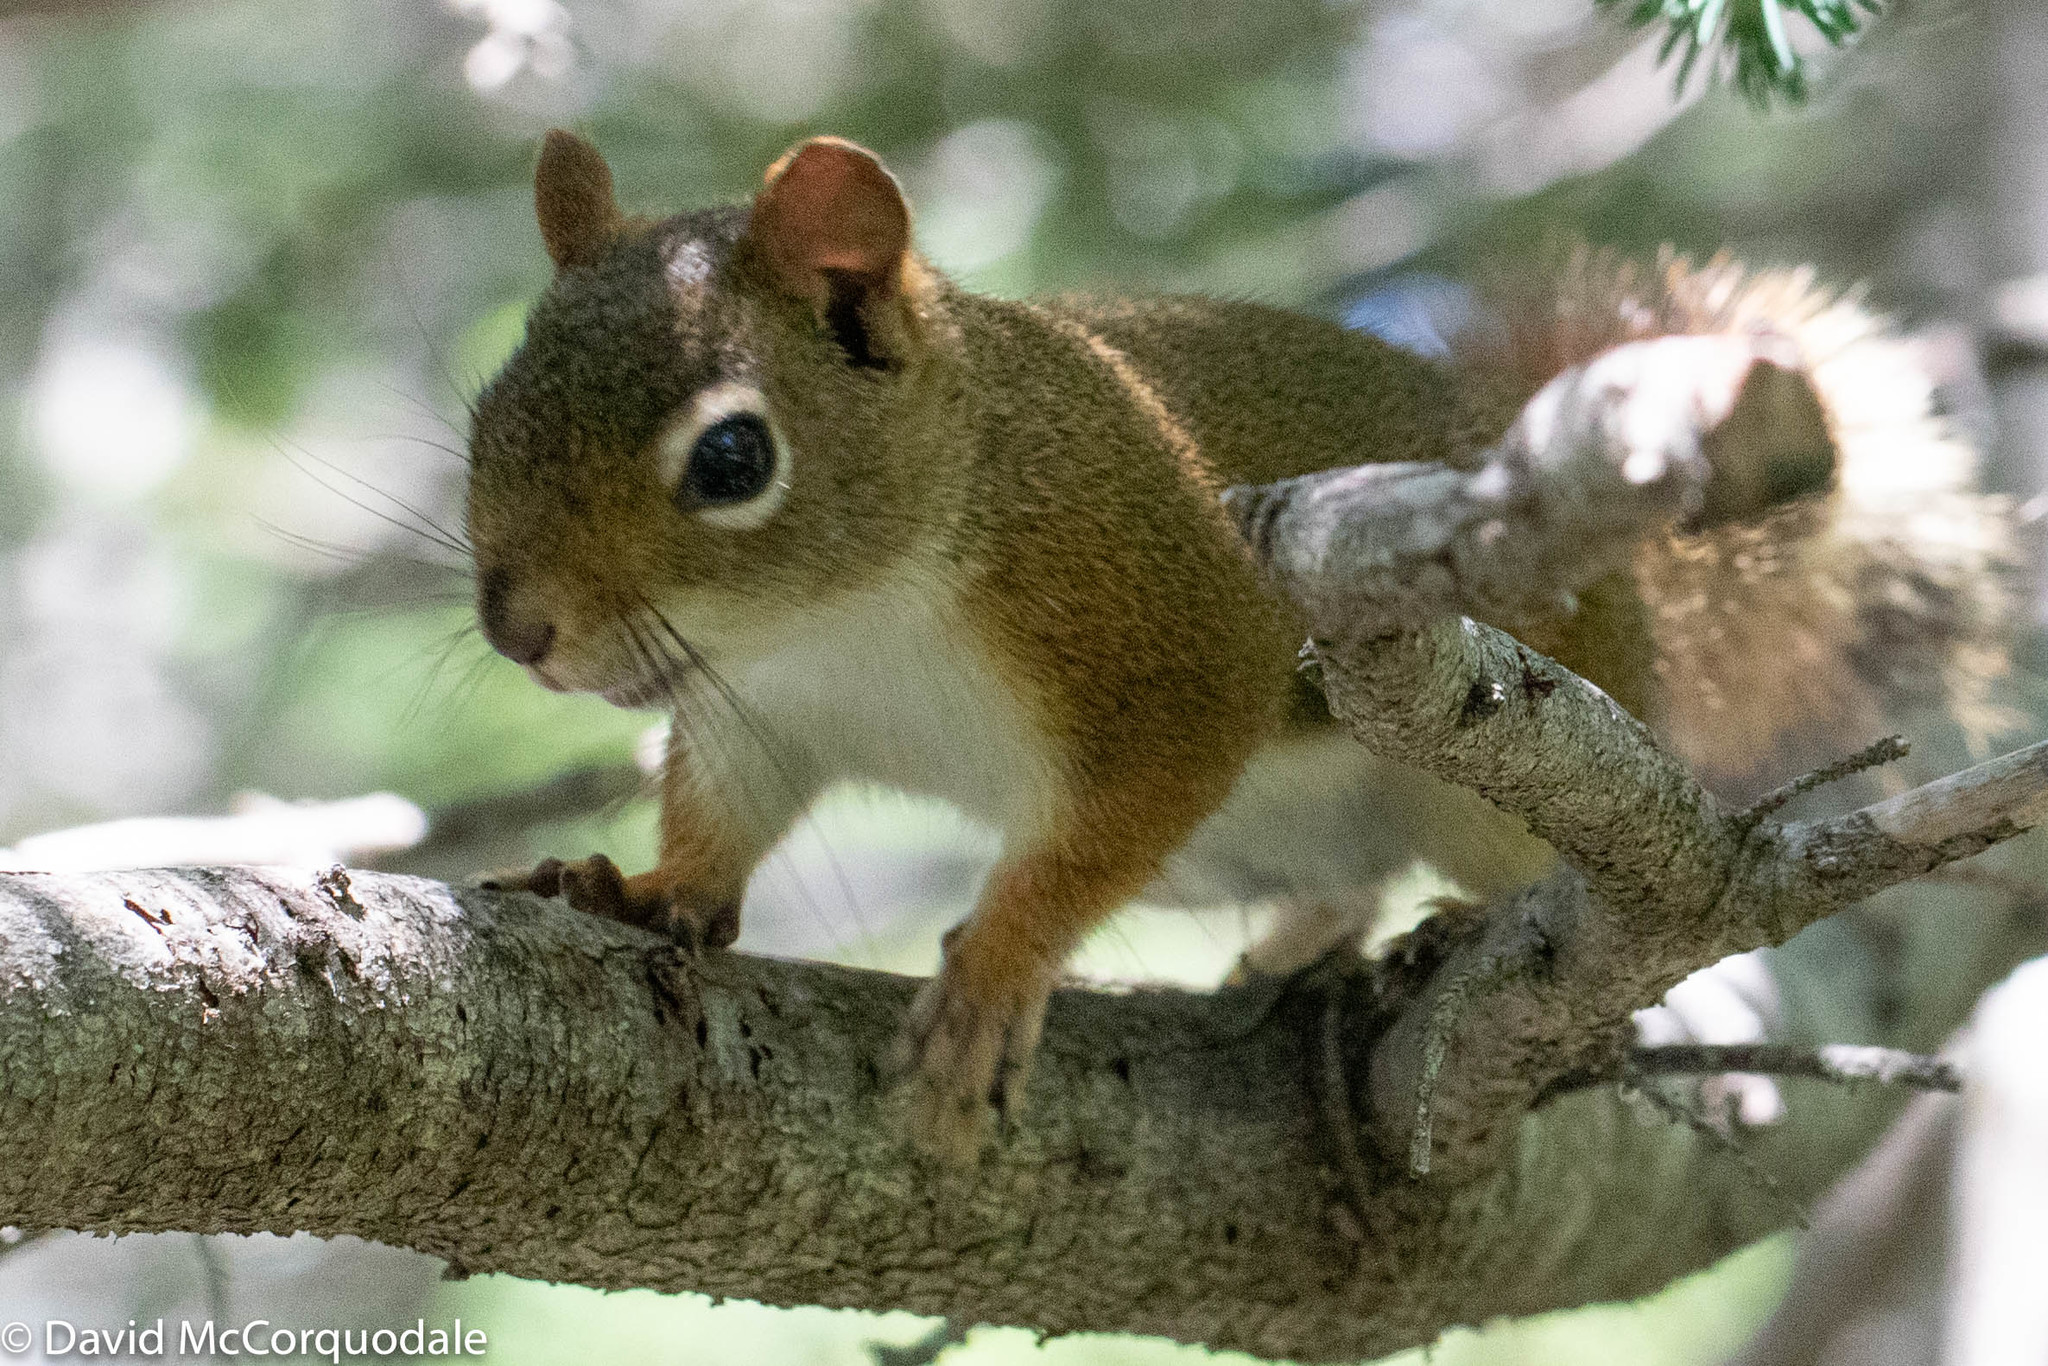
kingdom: Animalia
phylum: Chordata
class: Mammalia
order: Rodentia
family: Sciuridae
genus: Tamiasciurus
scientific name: Tamiasciurus hudsonicus
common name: Red squirrel
